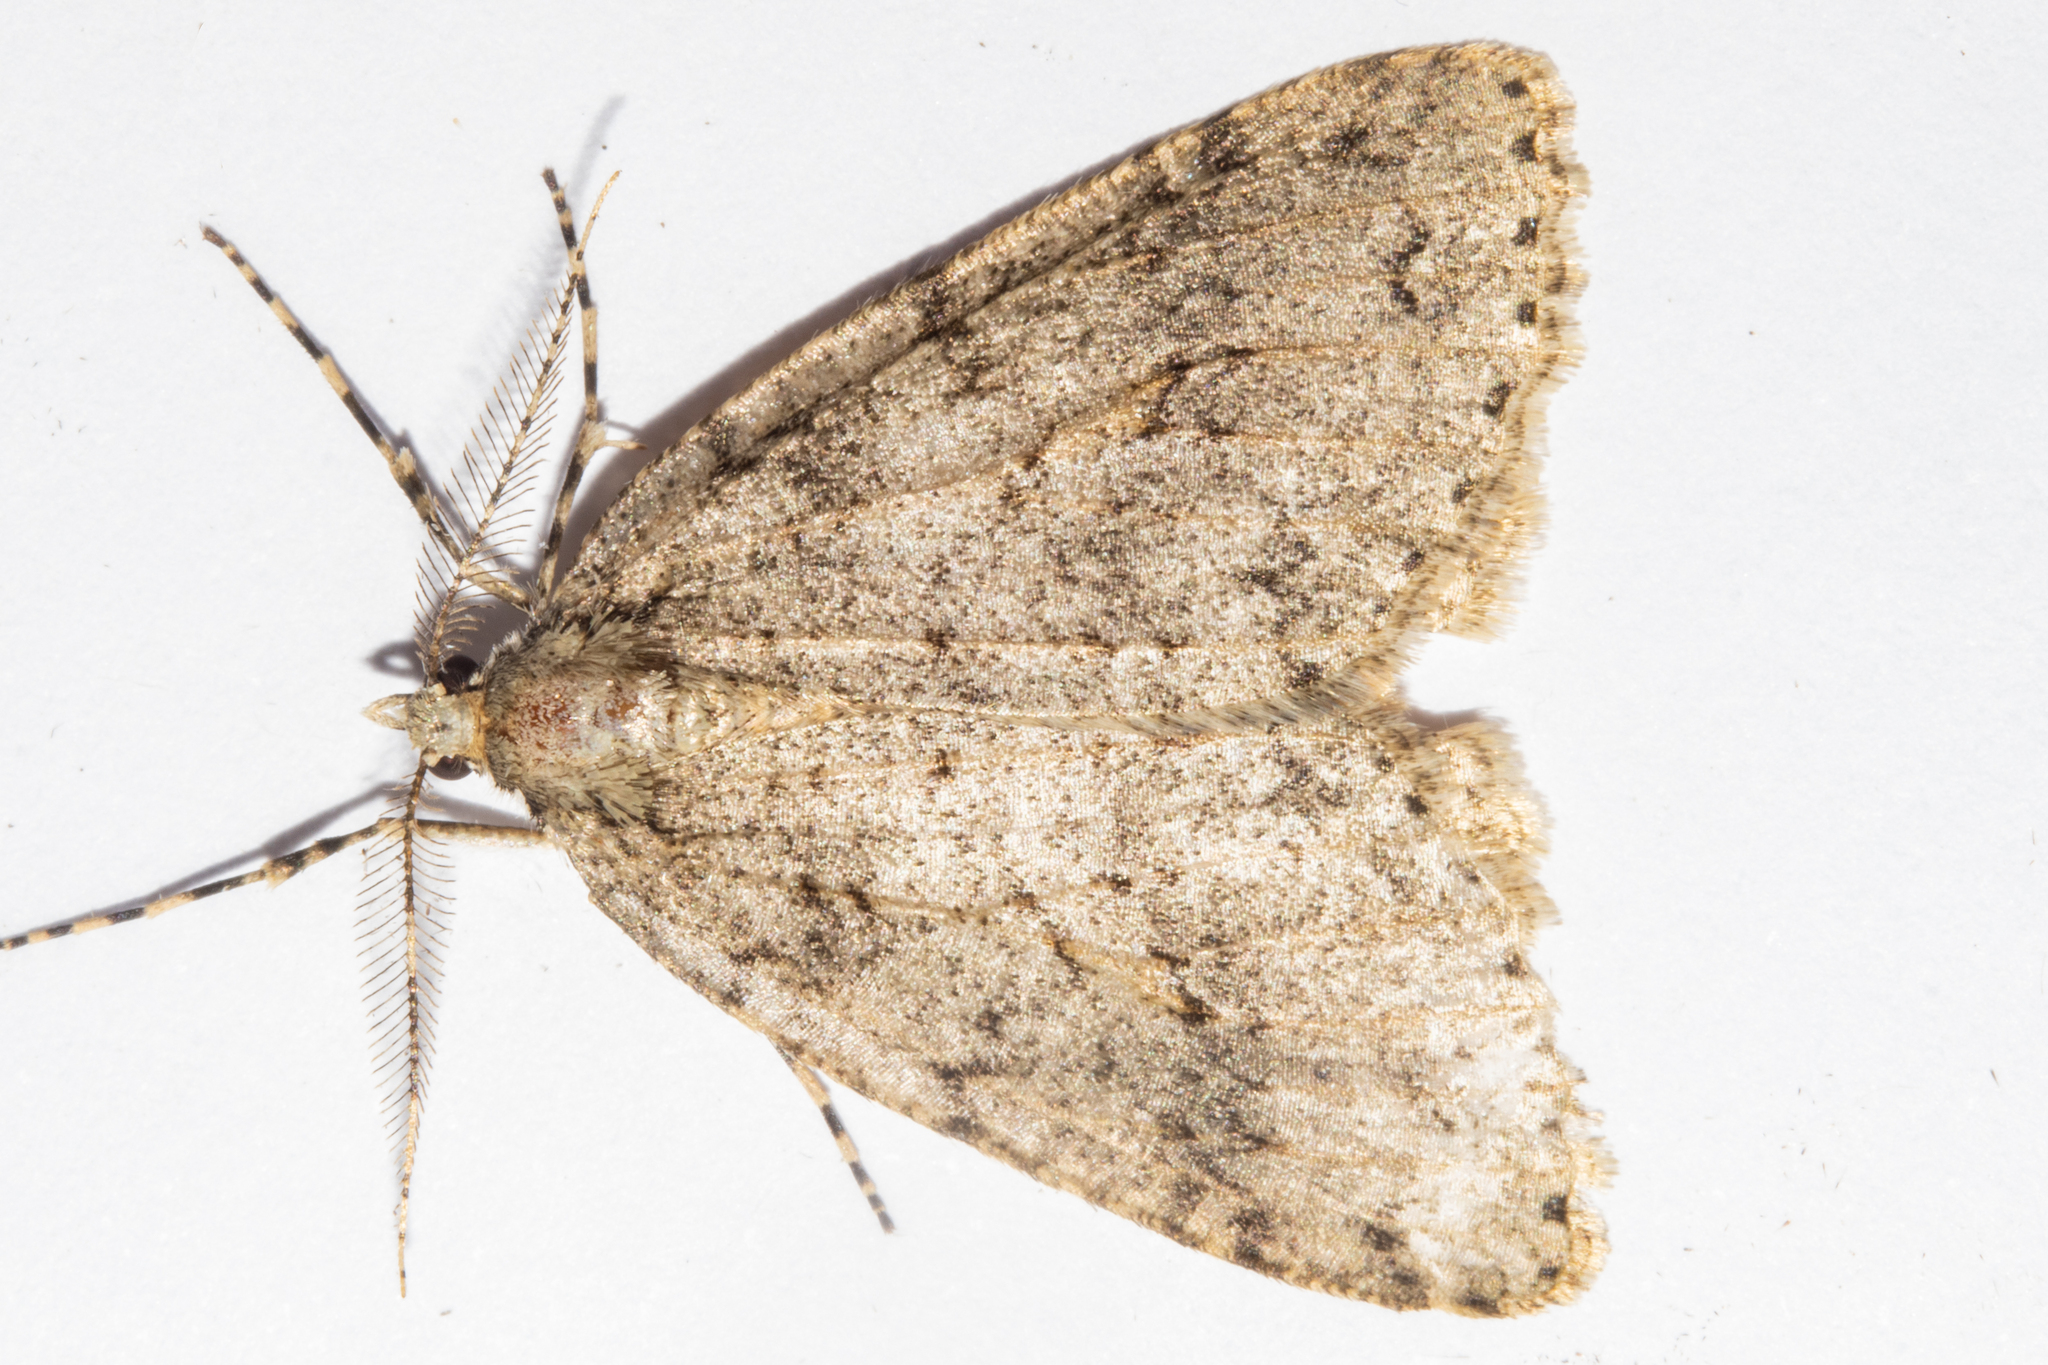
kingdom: Animalia
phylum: Arthropoda
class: Insecta
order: Lepidoptera
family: Geometridae
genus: Pseudocoremia
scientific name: Pseudocoremia rudisata
